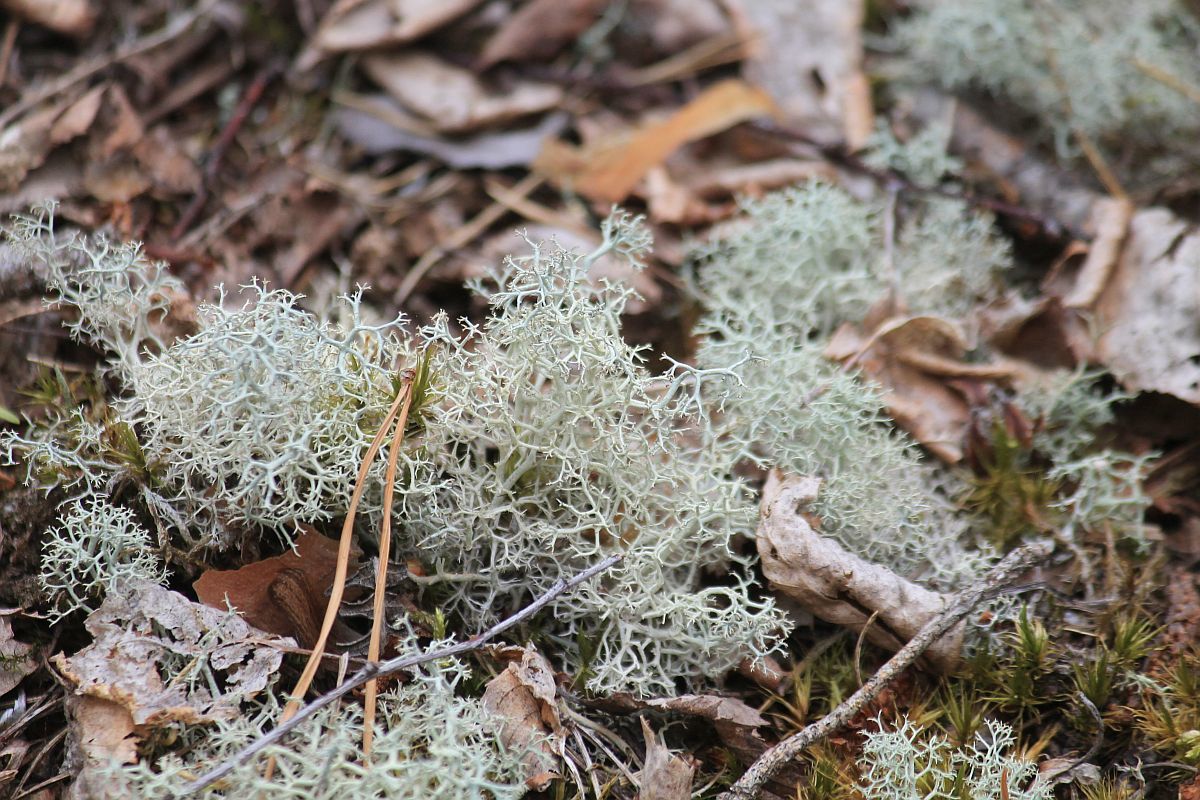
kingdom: Fungi
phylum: Ascomycota
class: Lecanoromycetes
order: Lecanorales
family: Cladoniaceae
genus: Cladonia
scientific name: Cladonia portentosa
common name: Reindeer lichen
